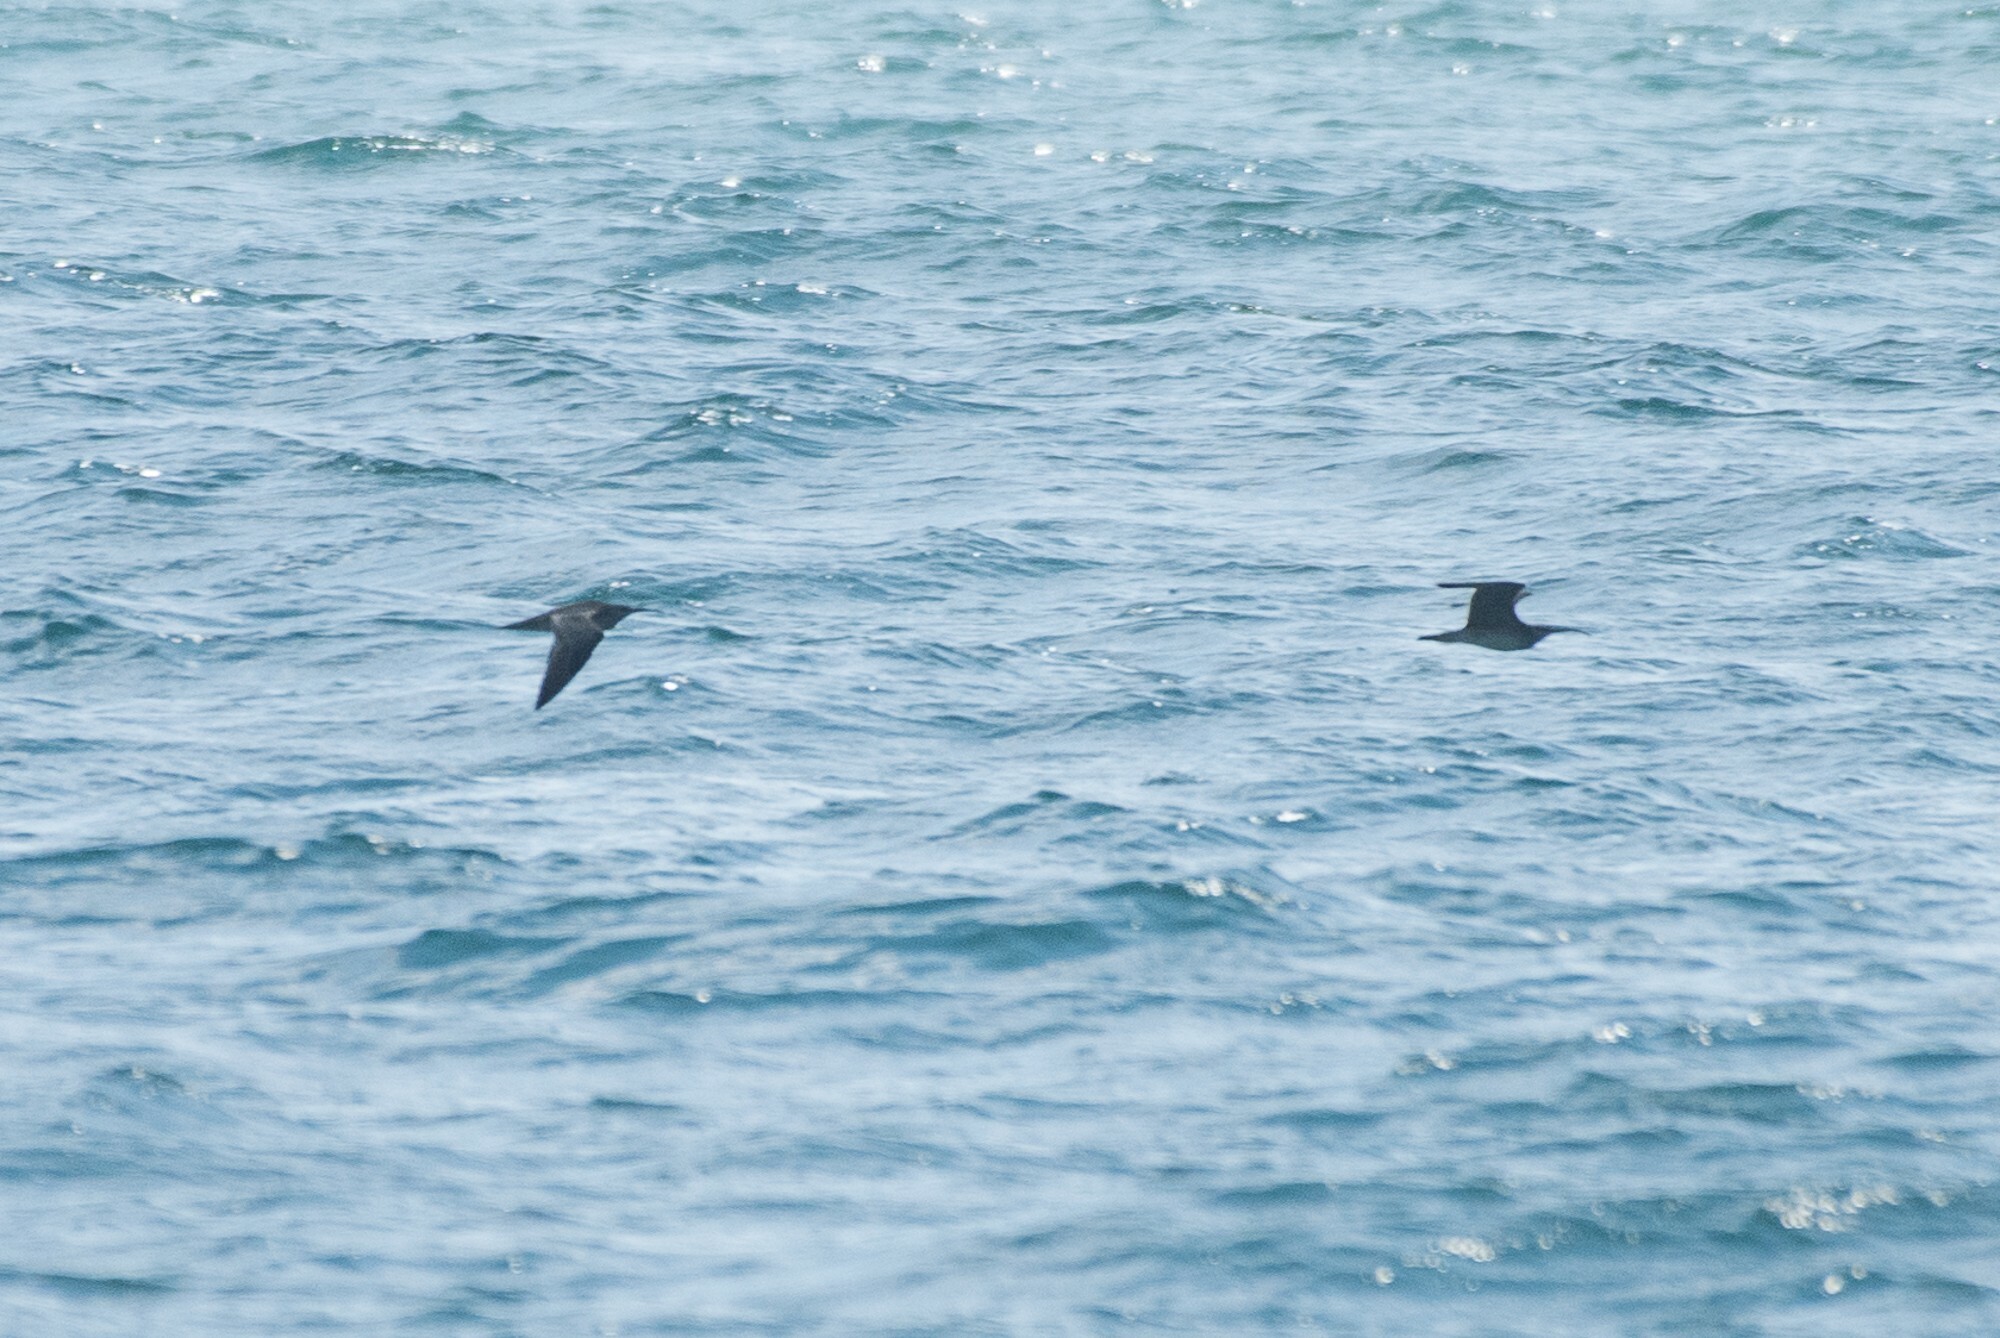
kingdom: Animalia
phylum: Chordata
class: Aves
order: Charadriiformes
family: Scolopacidae
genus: Numenius
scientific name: Numenius phaeopus
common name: Whimbrel
